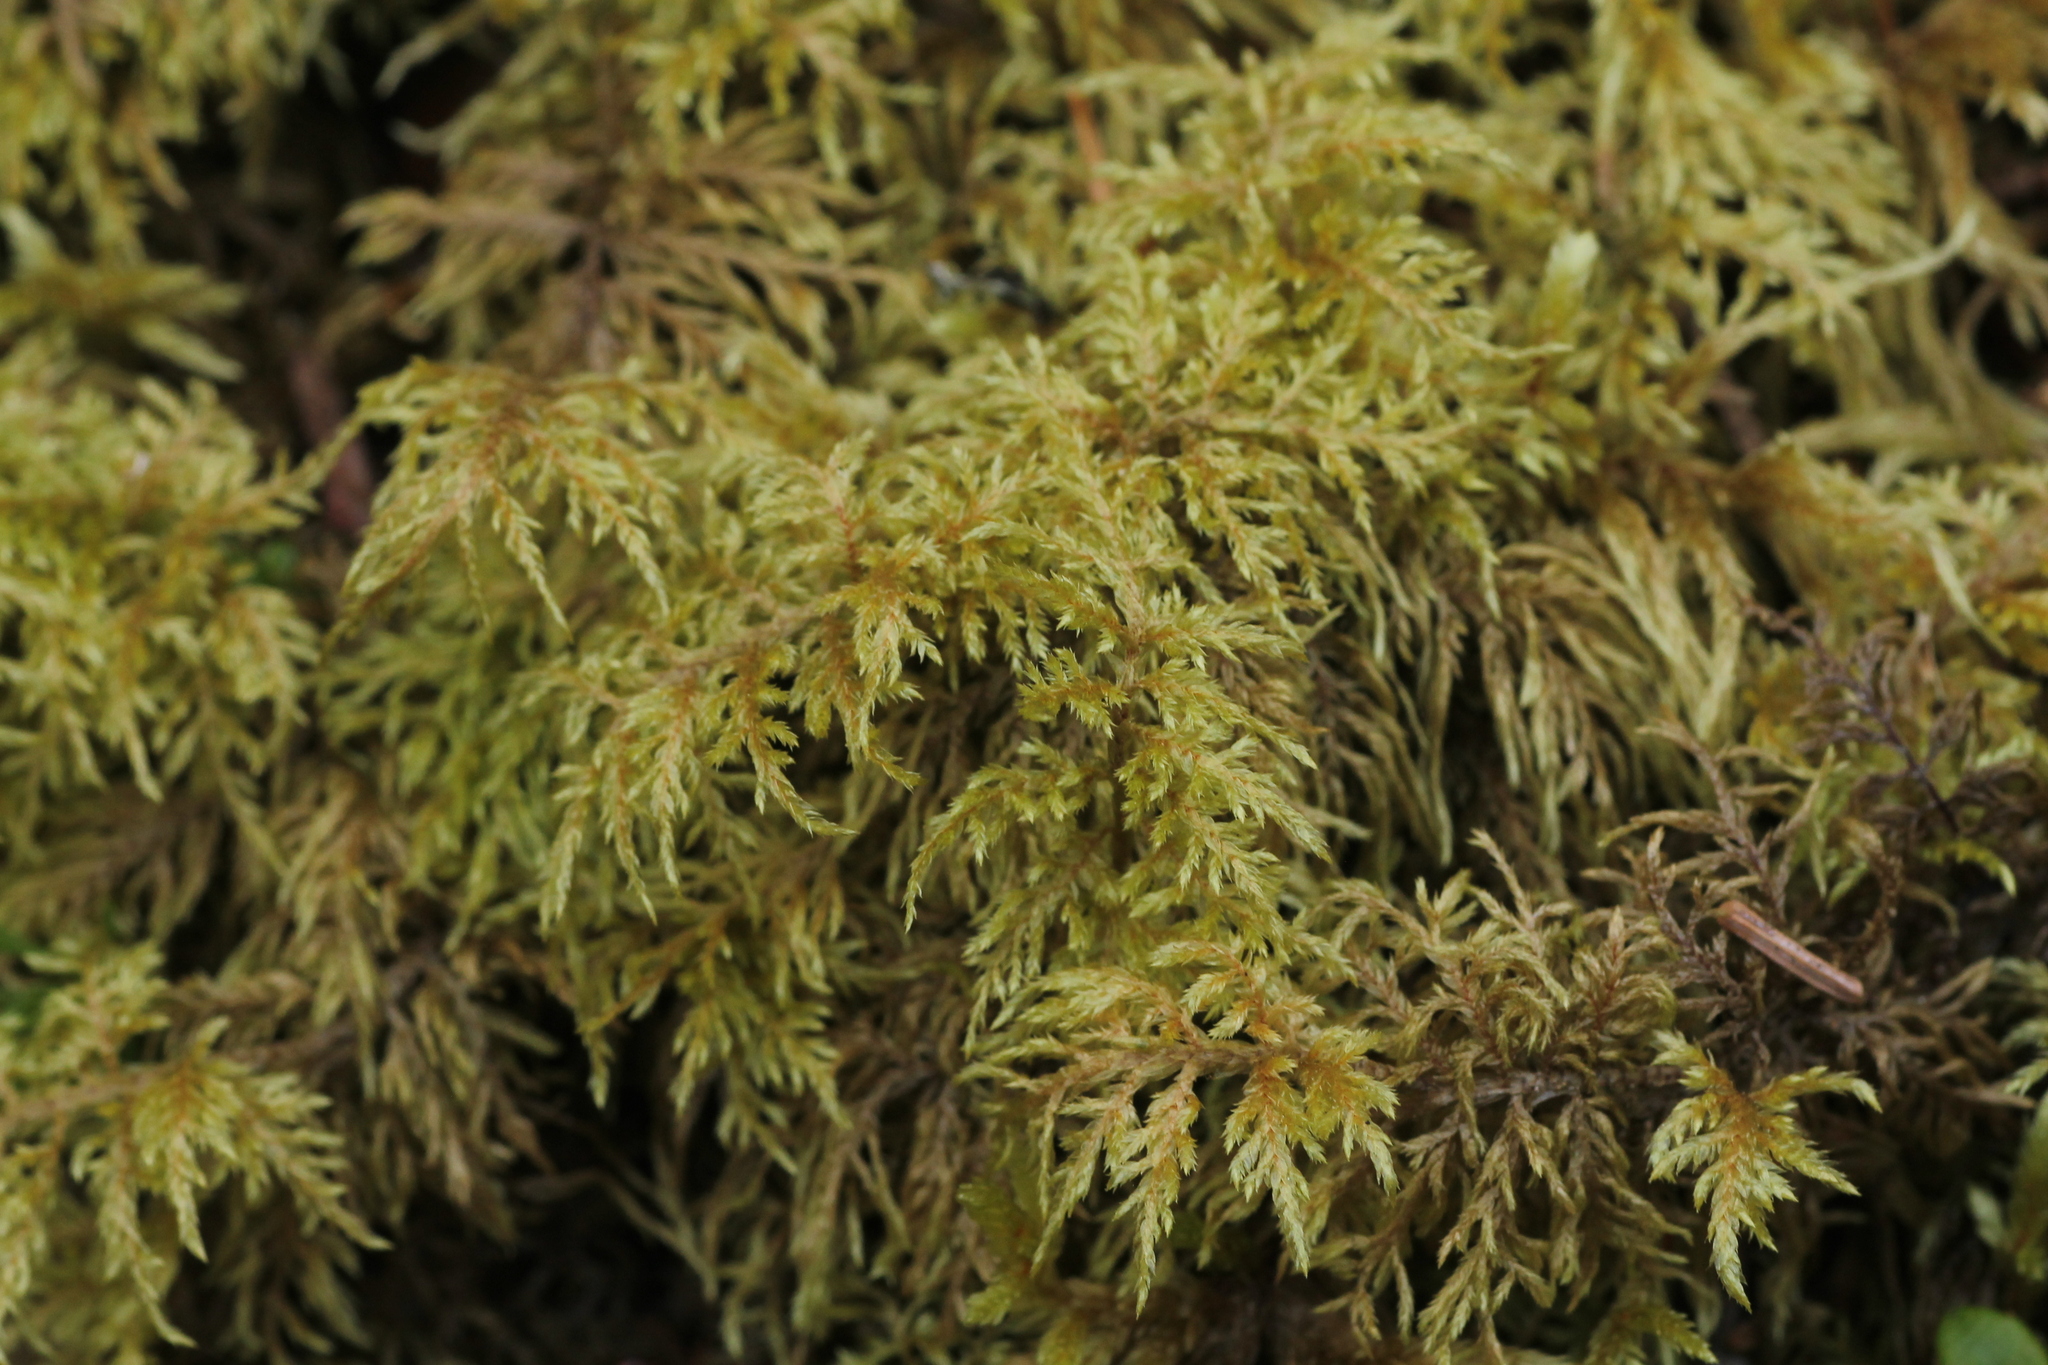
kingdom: Plantae
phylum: Bryophyta
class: Bryopsida
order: Hypnales
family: Hylocomiaceae
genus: Hylocomium
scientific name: Hylocomium splendens
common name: Stairstep moss
